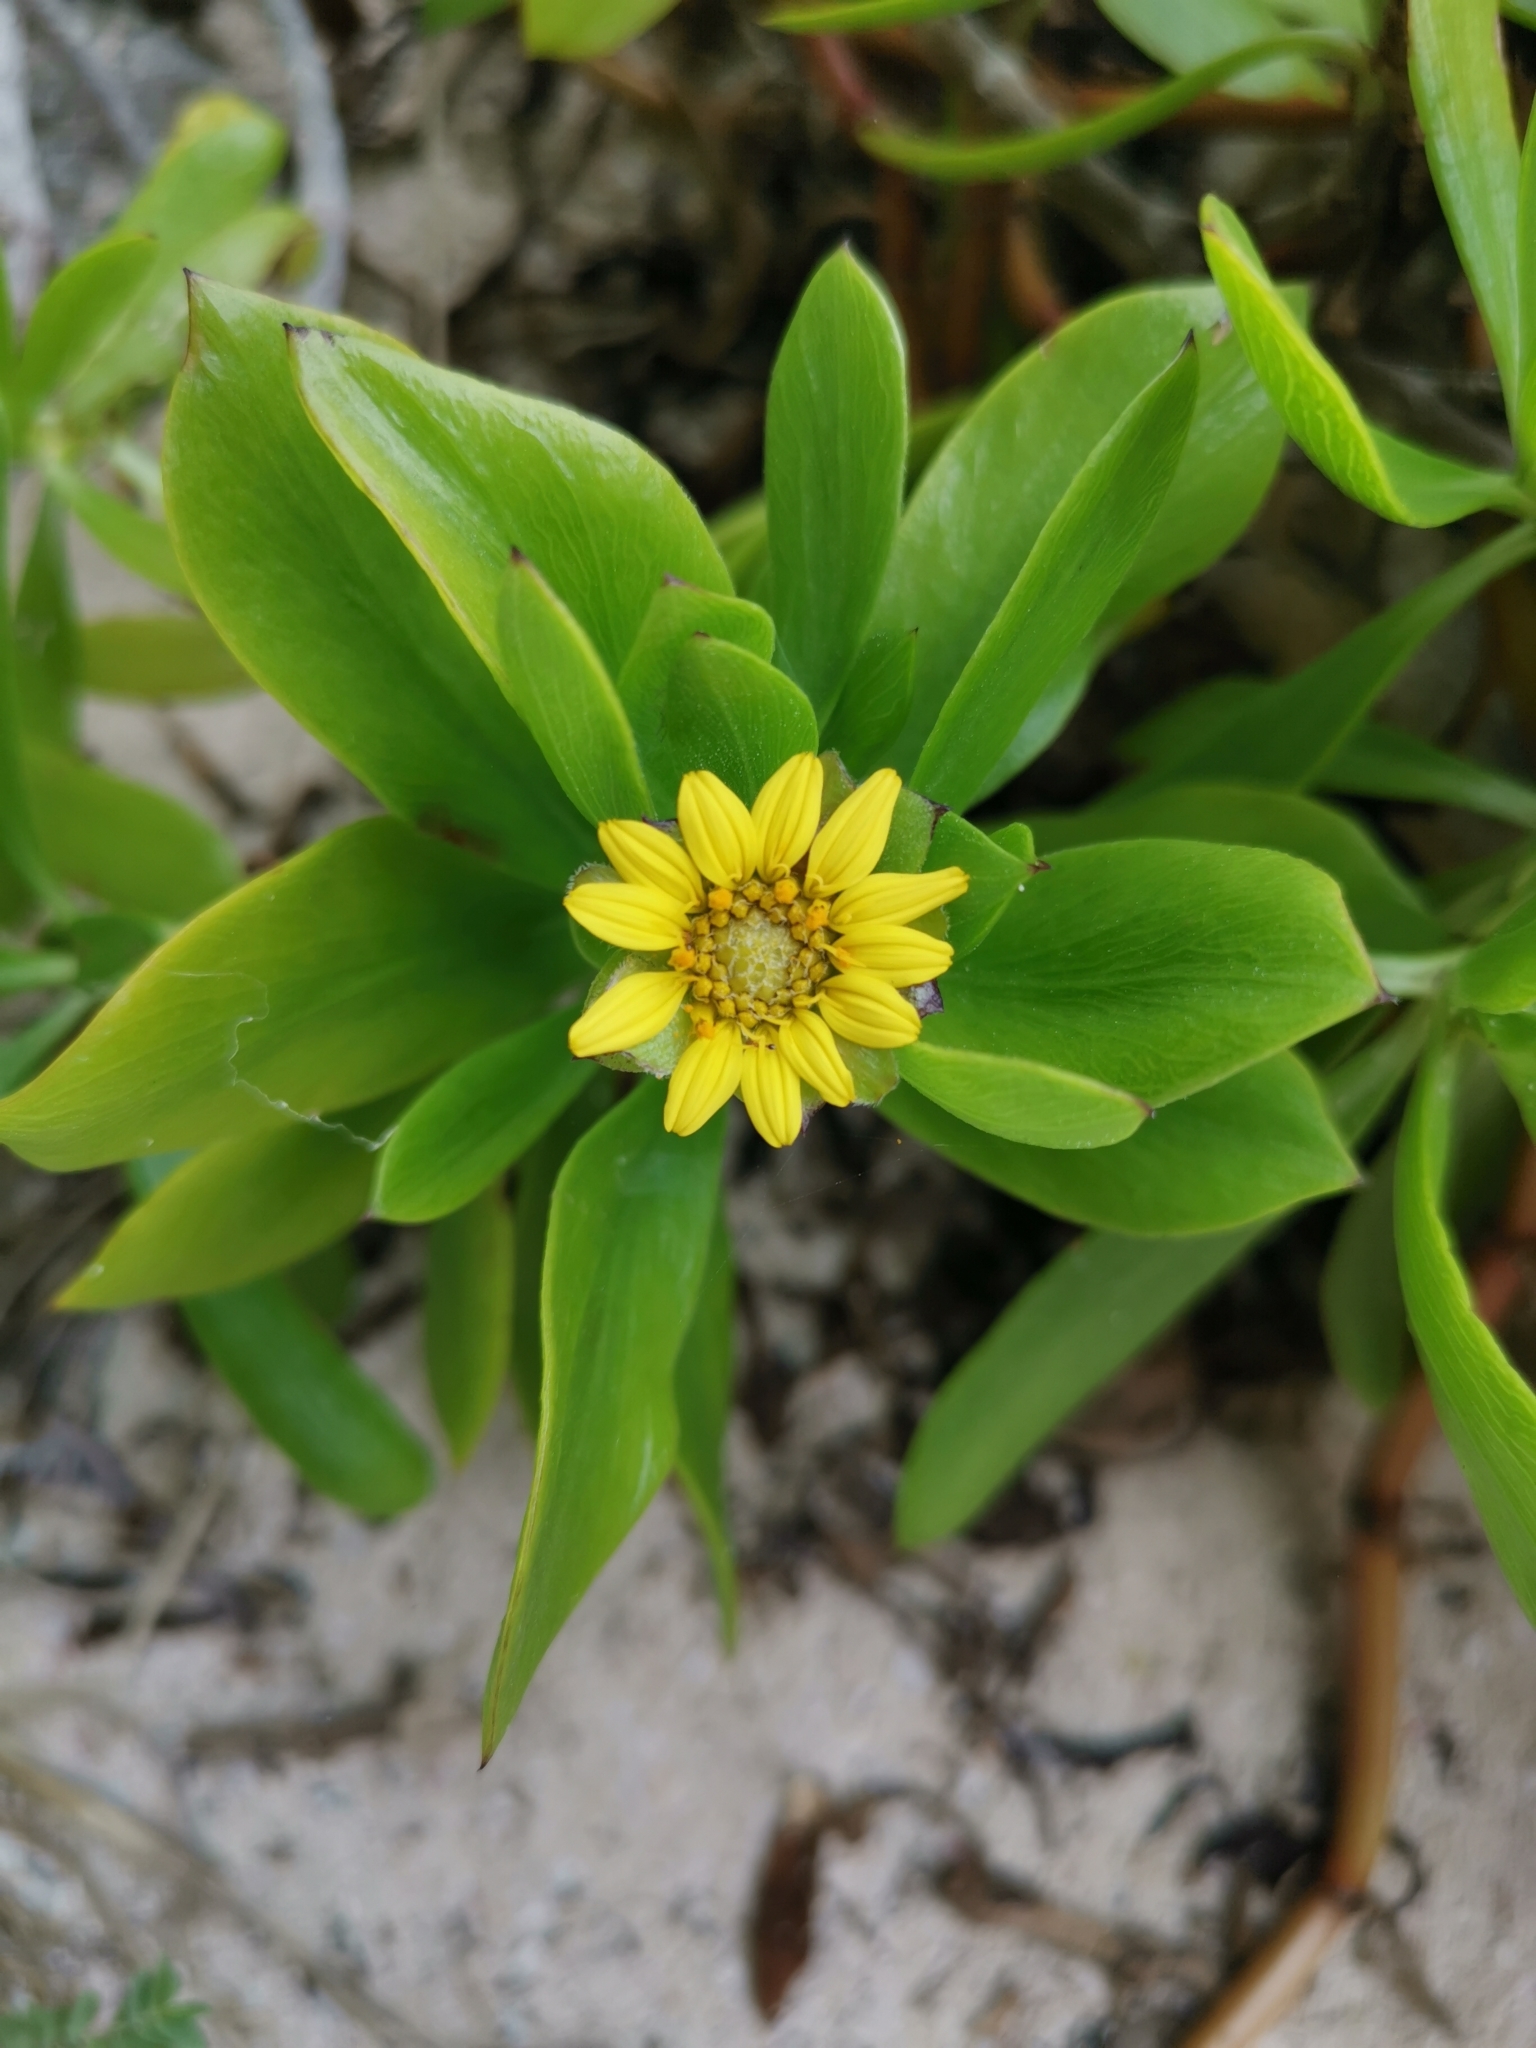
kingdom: Plantae
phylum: Tracheophyta
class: Magnoliopsida
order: Asterales
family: Asteraceae
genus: Borrichia
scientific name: Borrichia arborescens
